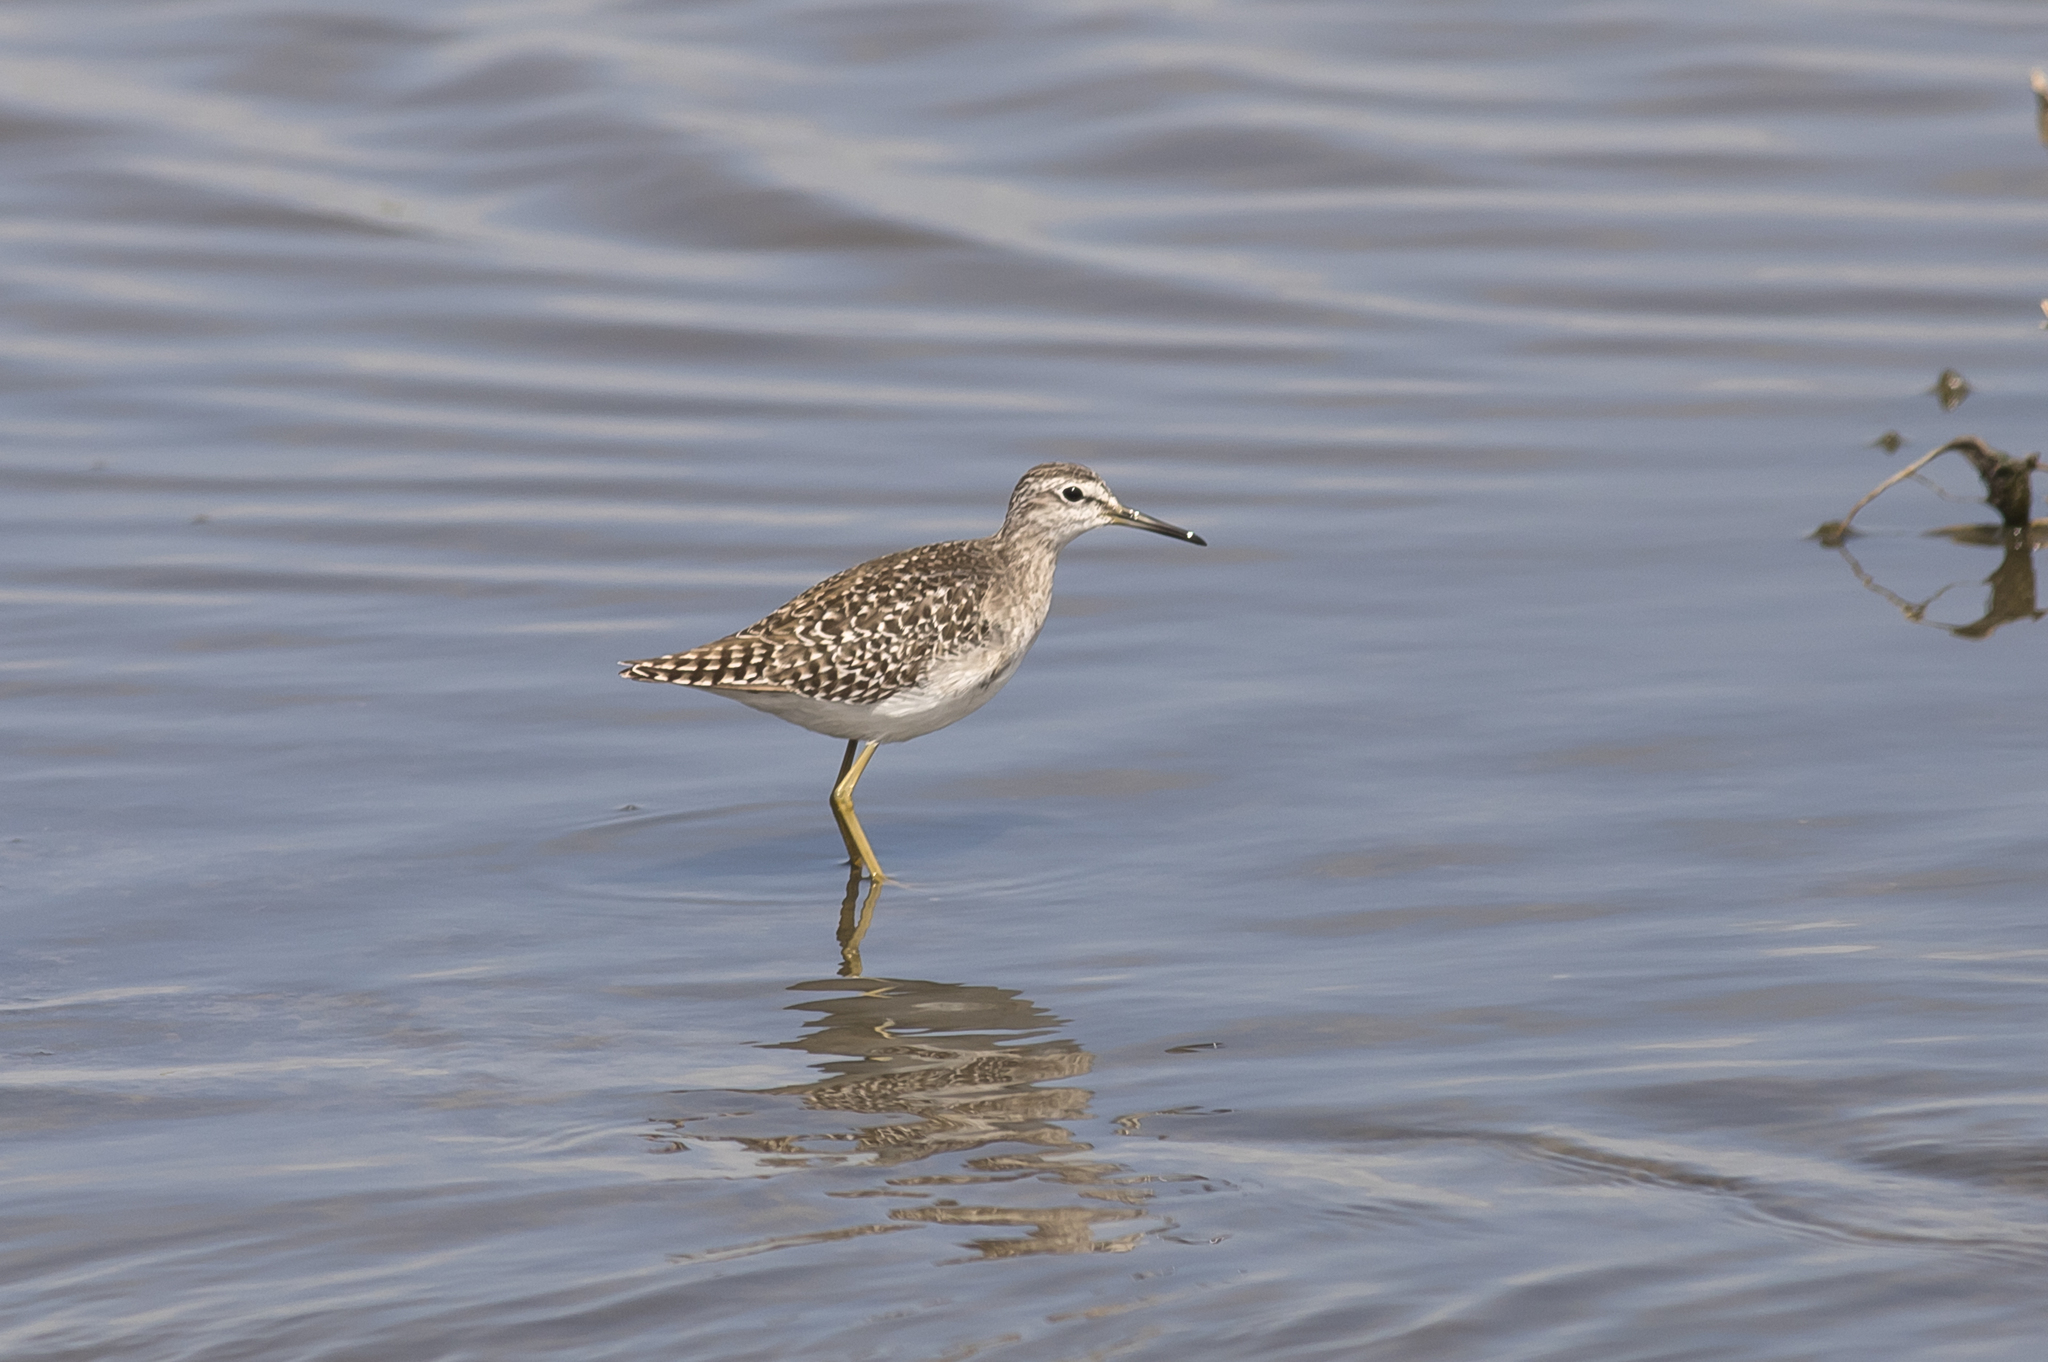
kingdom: Animalia
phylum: Chordata
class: Aves
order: Charadriiformes
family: Scolopacidae
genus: Tringa
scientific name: Tringa glareola
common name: Wood sandpiper
